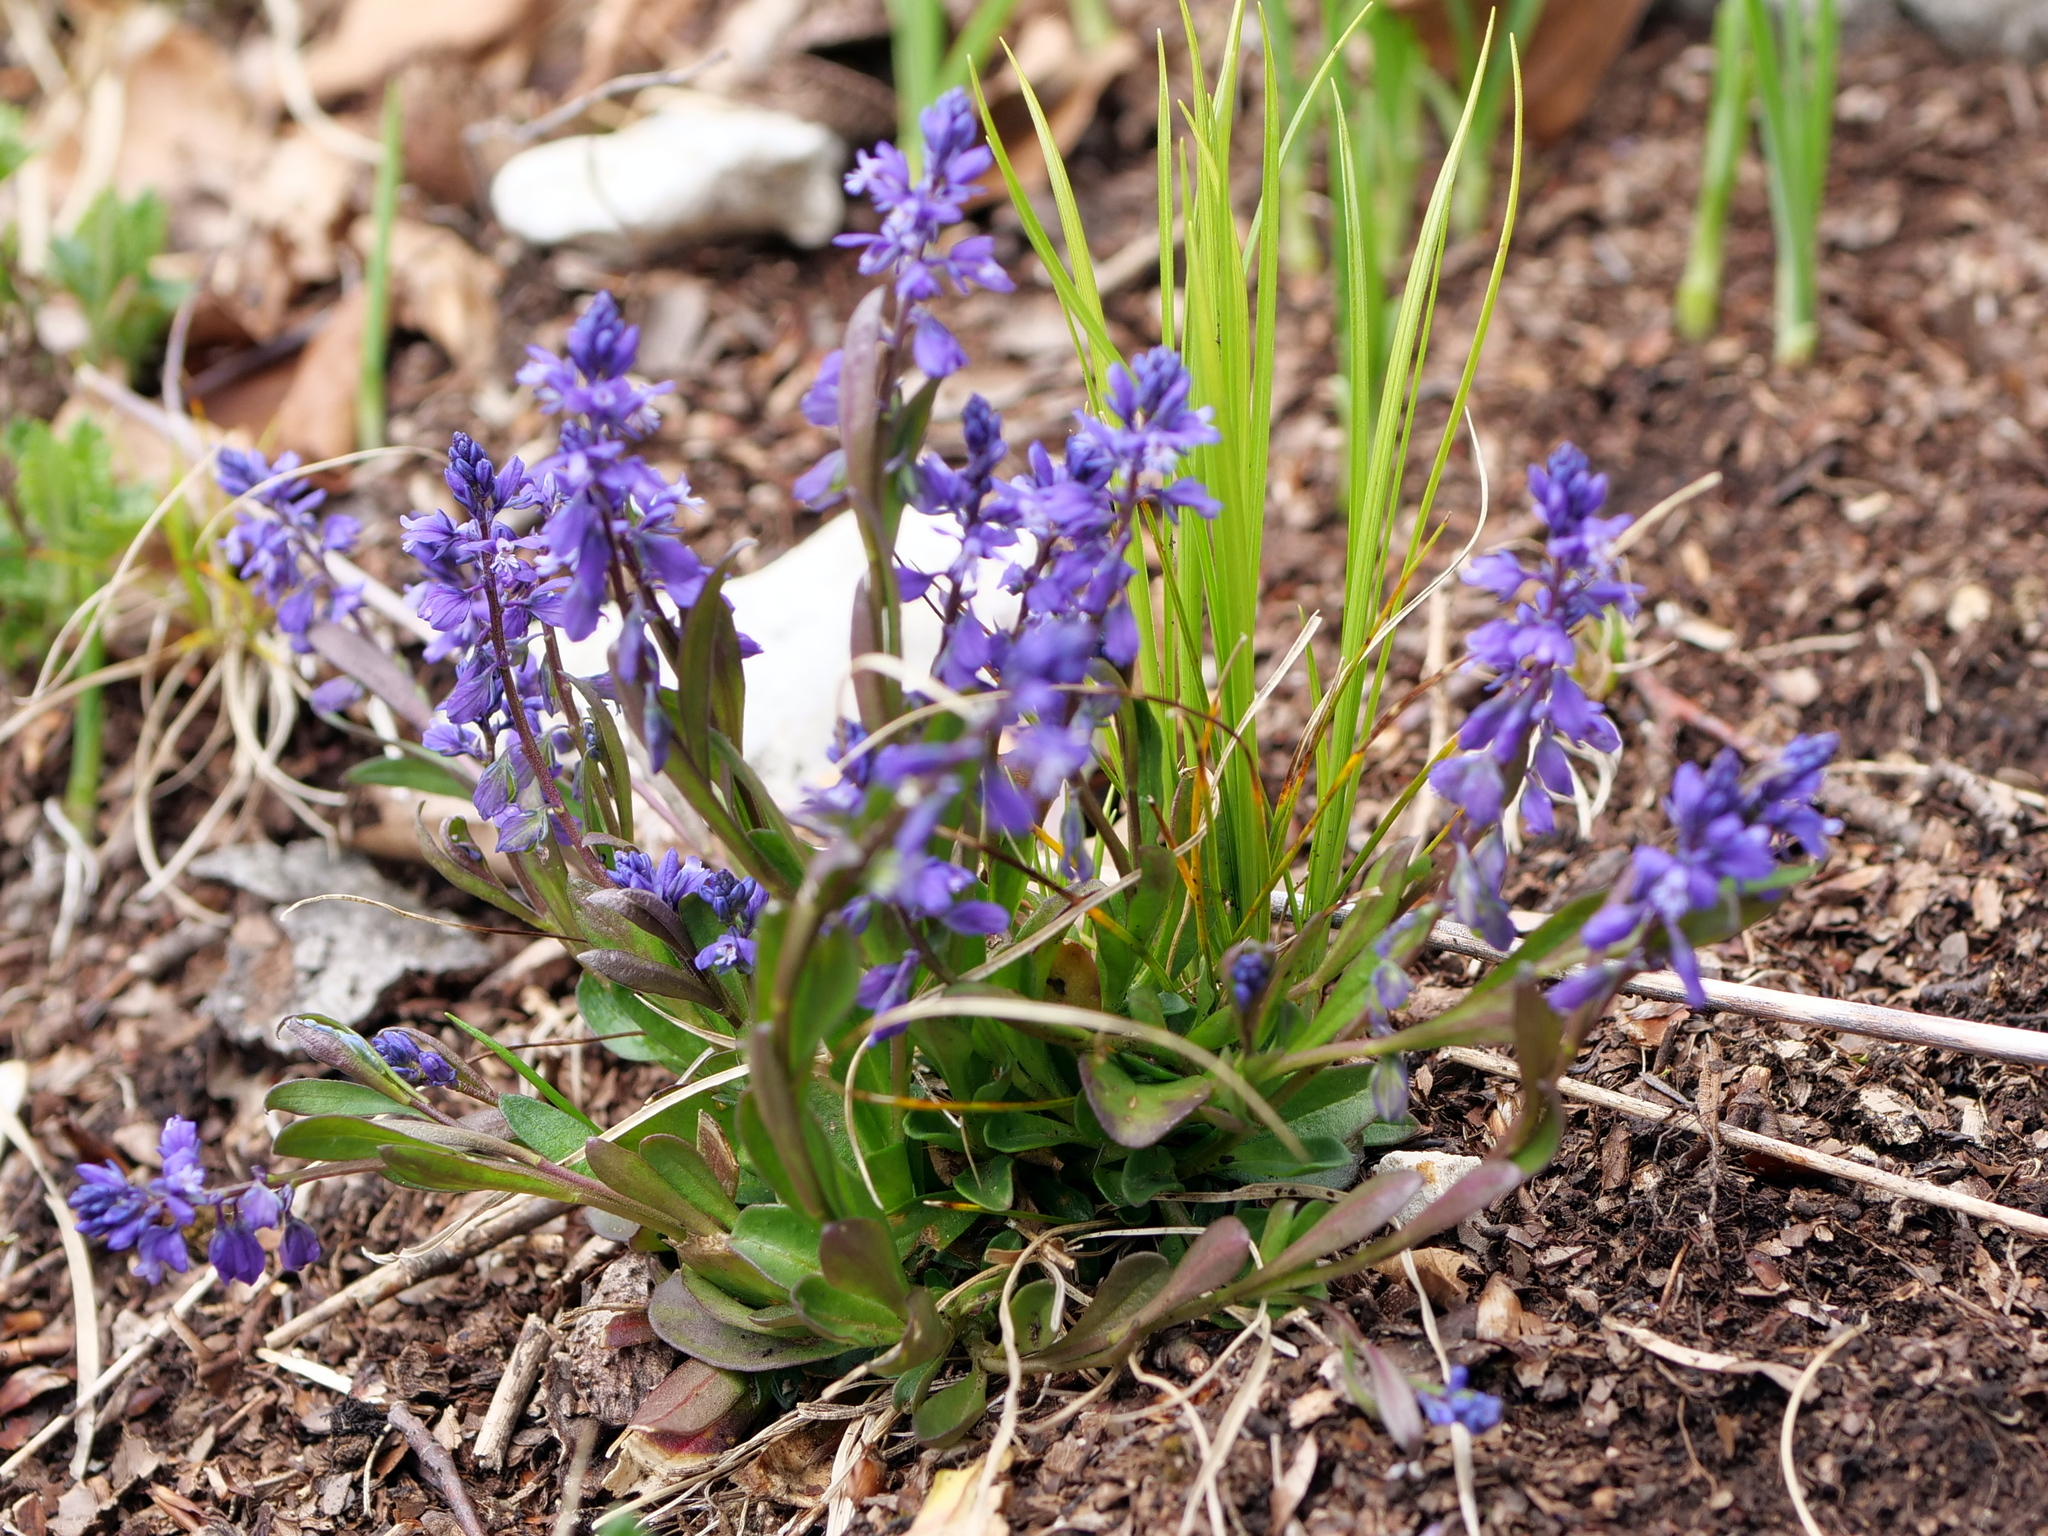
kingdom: Plantae
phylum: Tracheophyta
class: Magnoliopsida
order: Fabales
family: Polygalaceae
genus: Polygala
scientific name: Polygala amarella
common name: Dwarf milkwort
